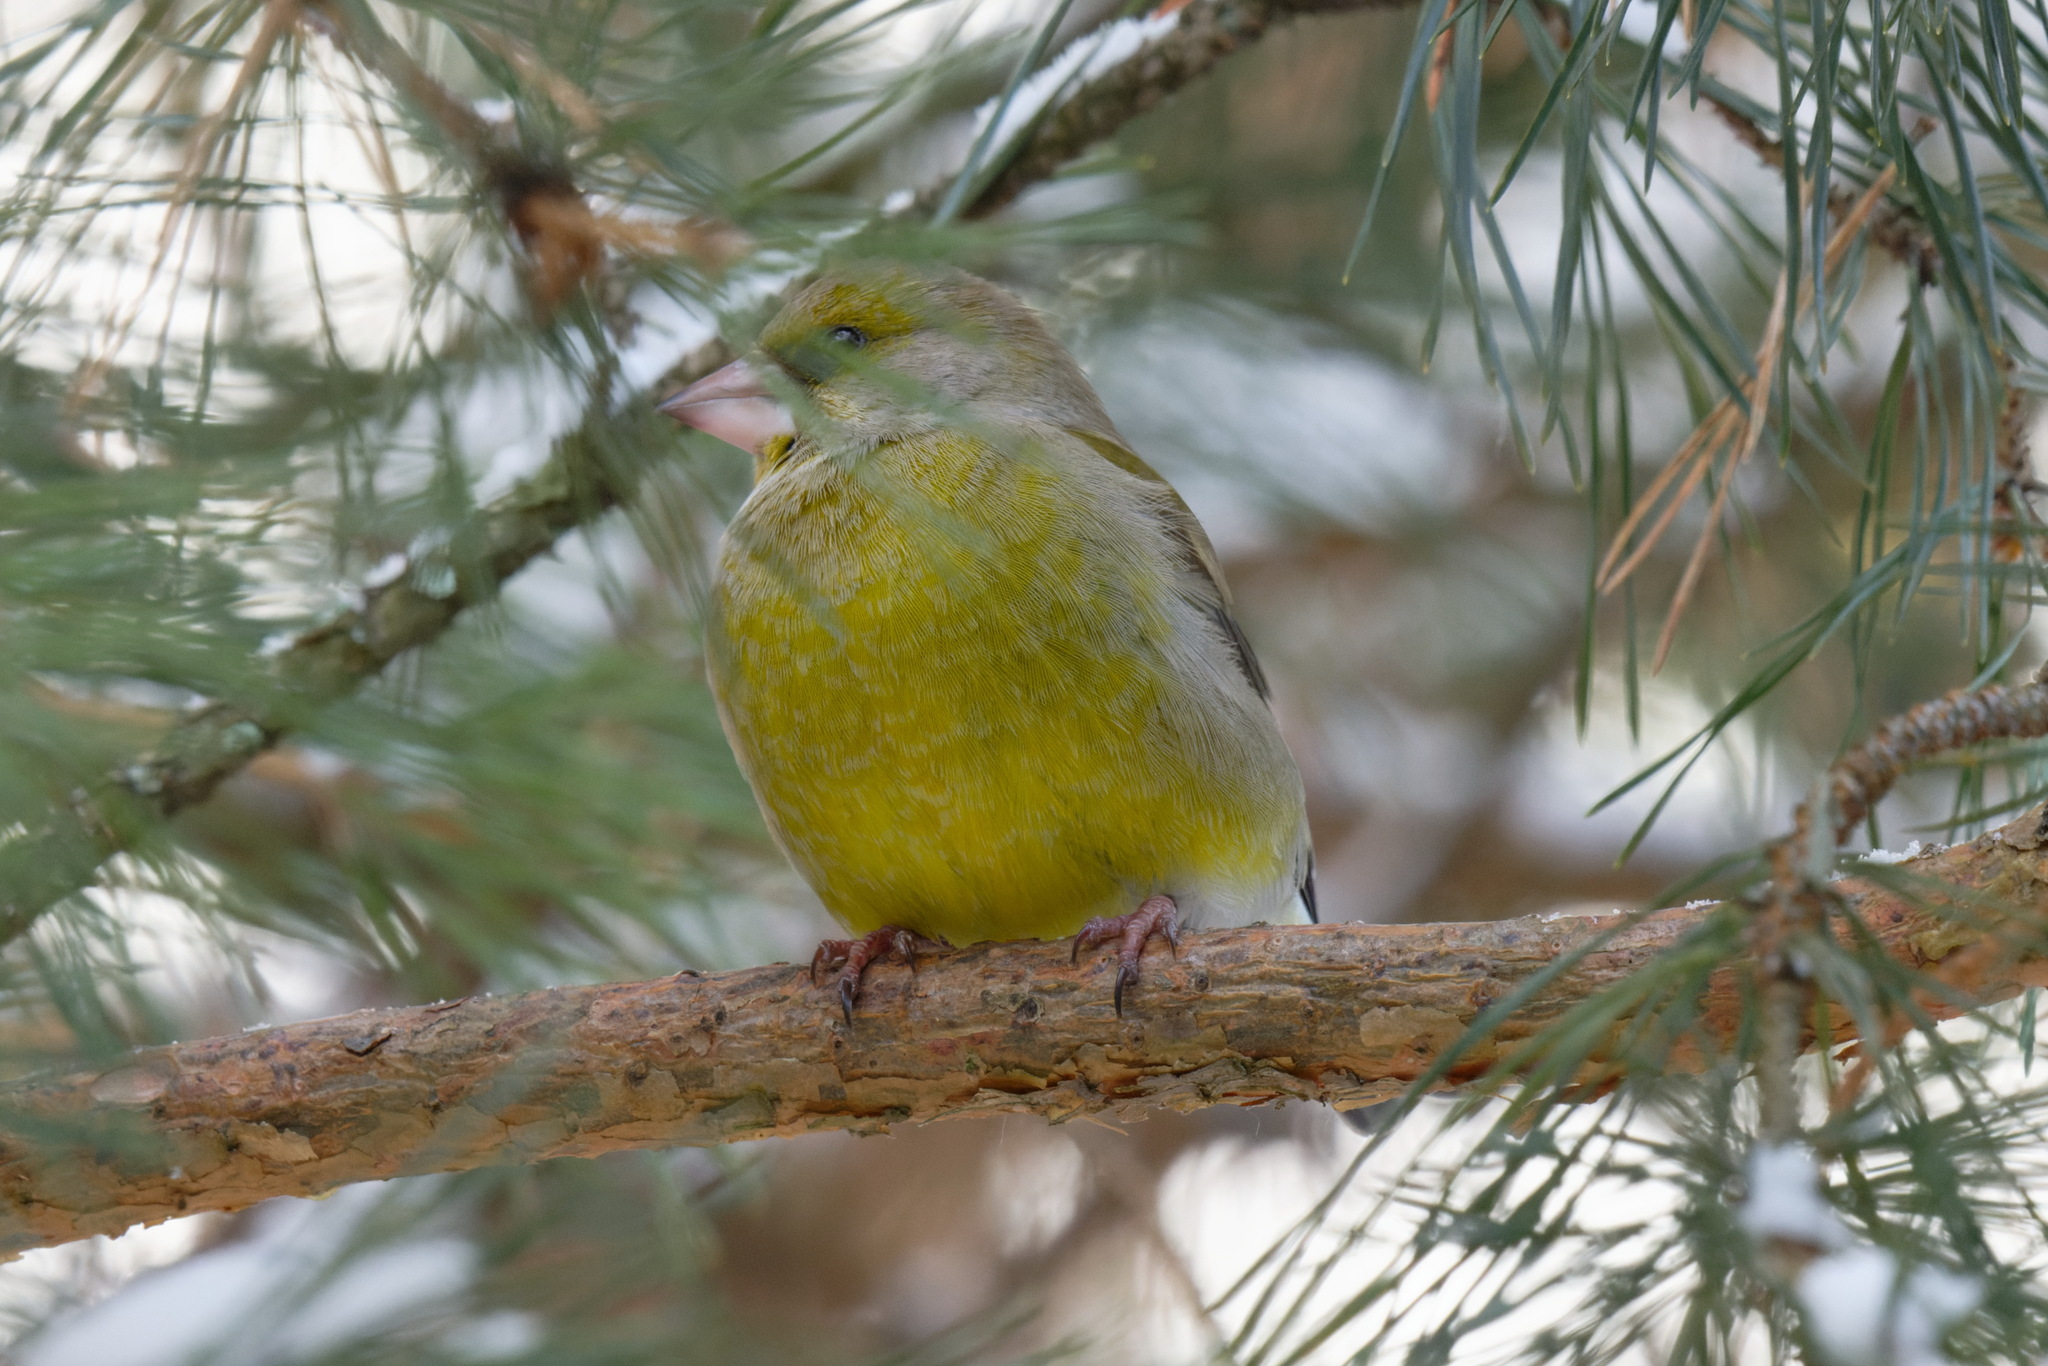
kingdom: Plantae
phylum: Tracheophyta
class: Liliopsida
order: Poales
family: Poaceae
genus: Chloris
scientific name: Chloris chloris
